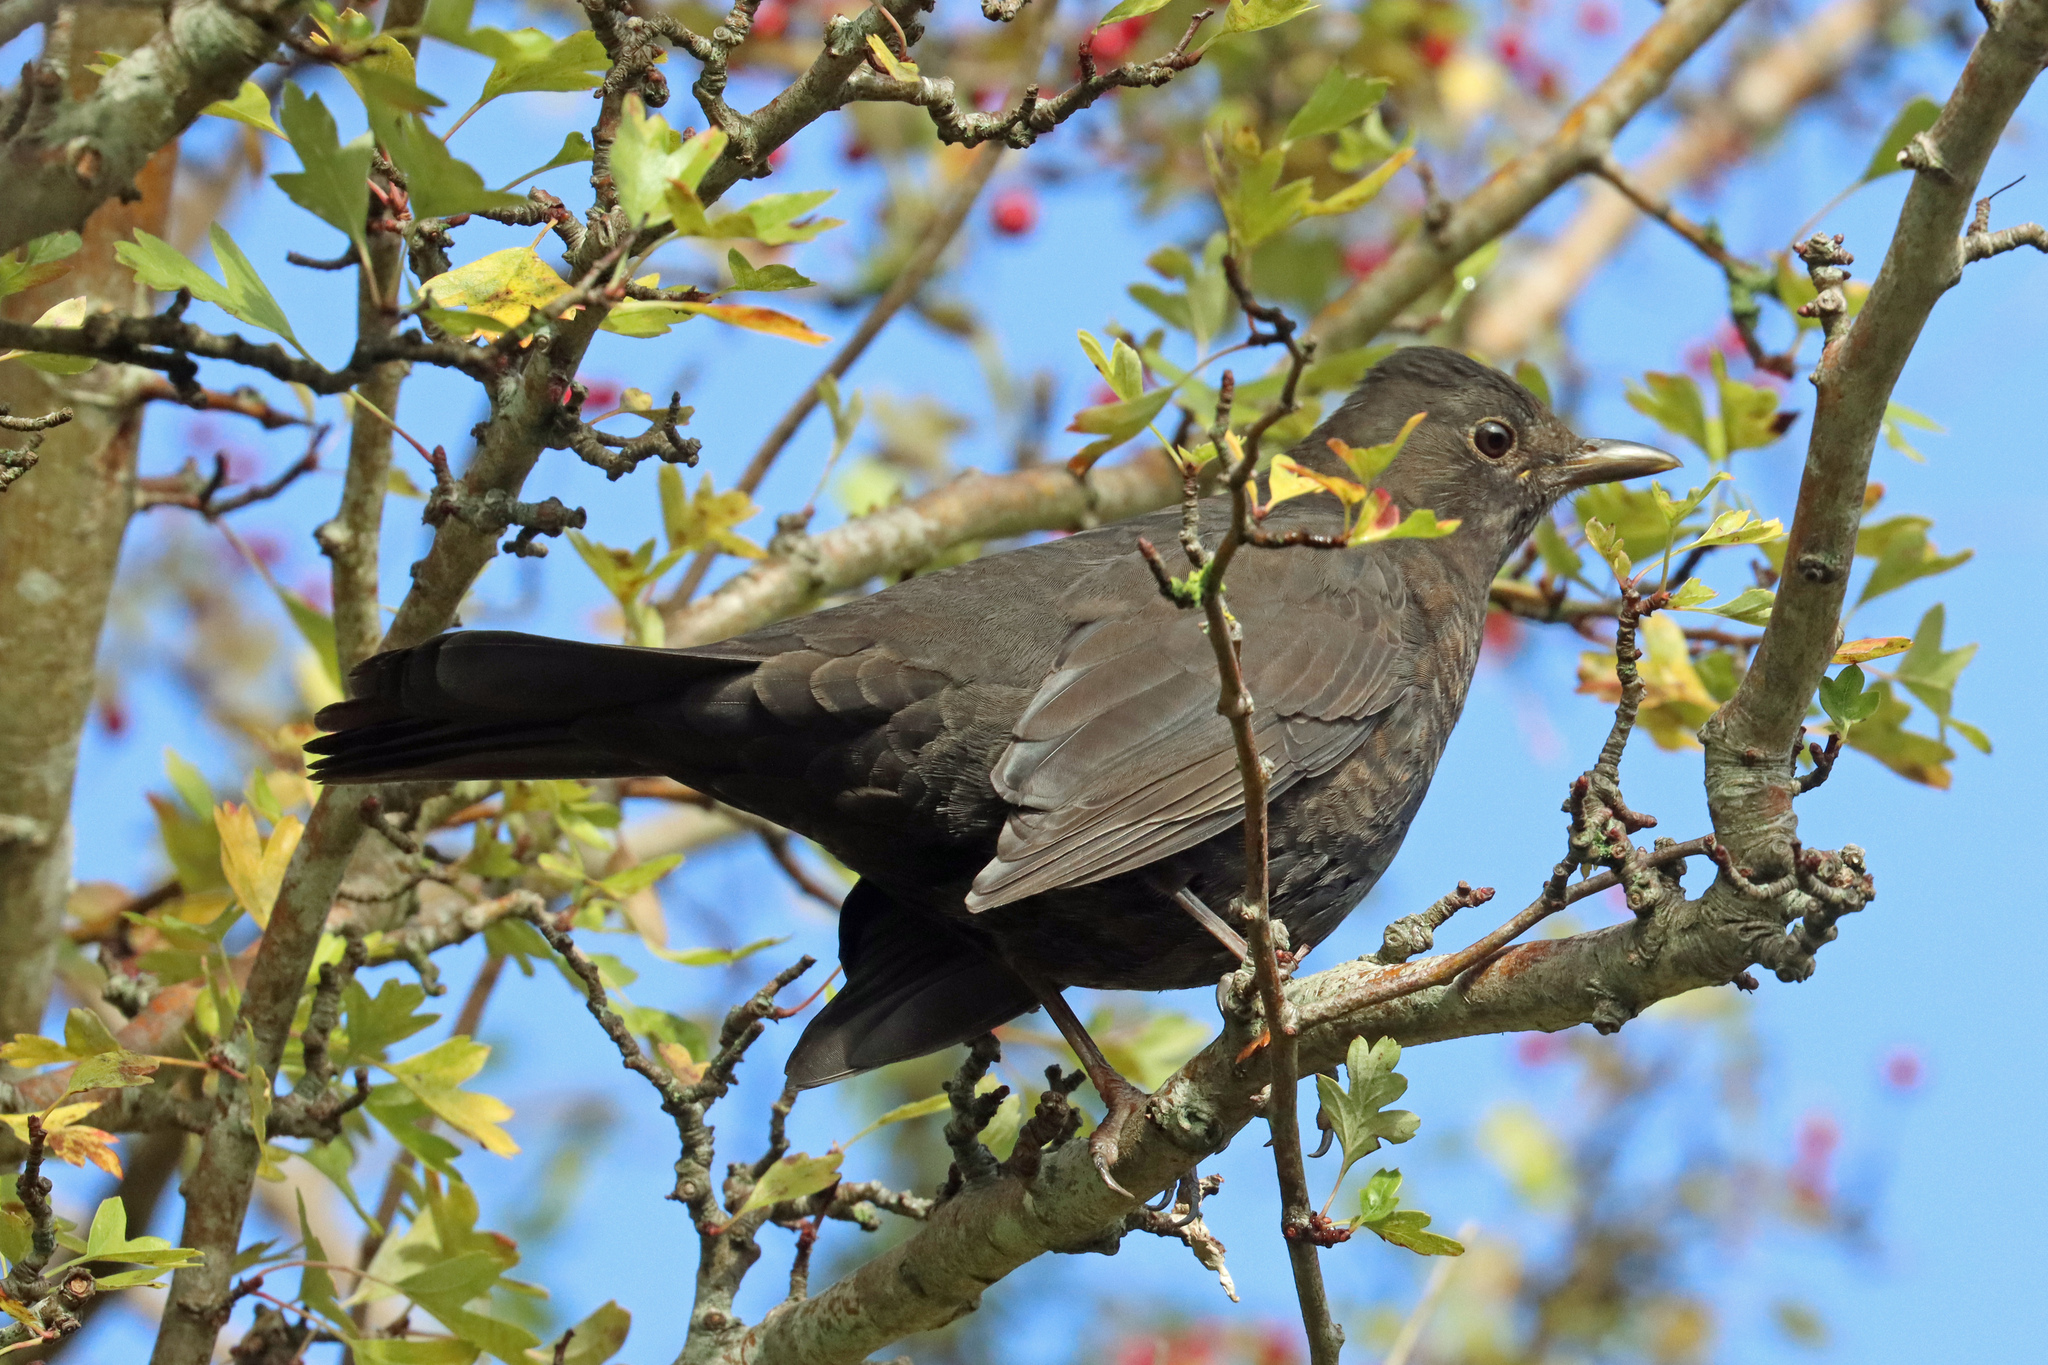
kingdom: Animalia
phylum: Chordata
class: Aves
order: Passeriformes
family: Turdidae
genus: Turdus
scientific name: Turdus merula
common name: Common blackbird
